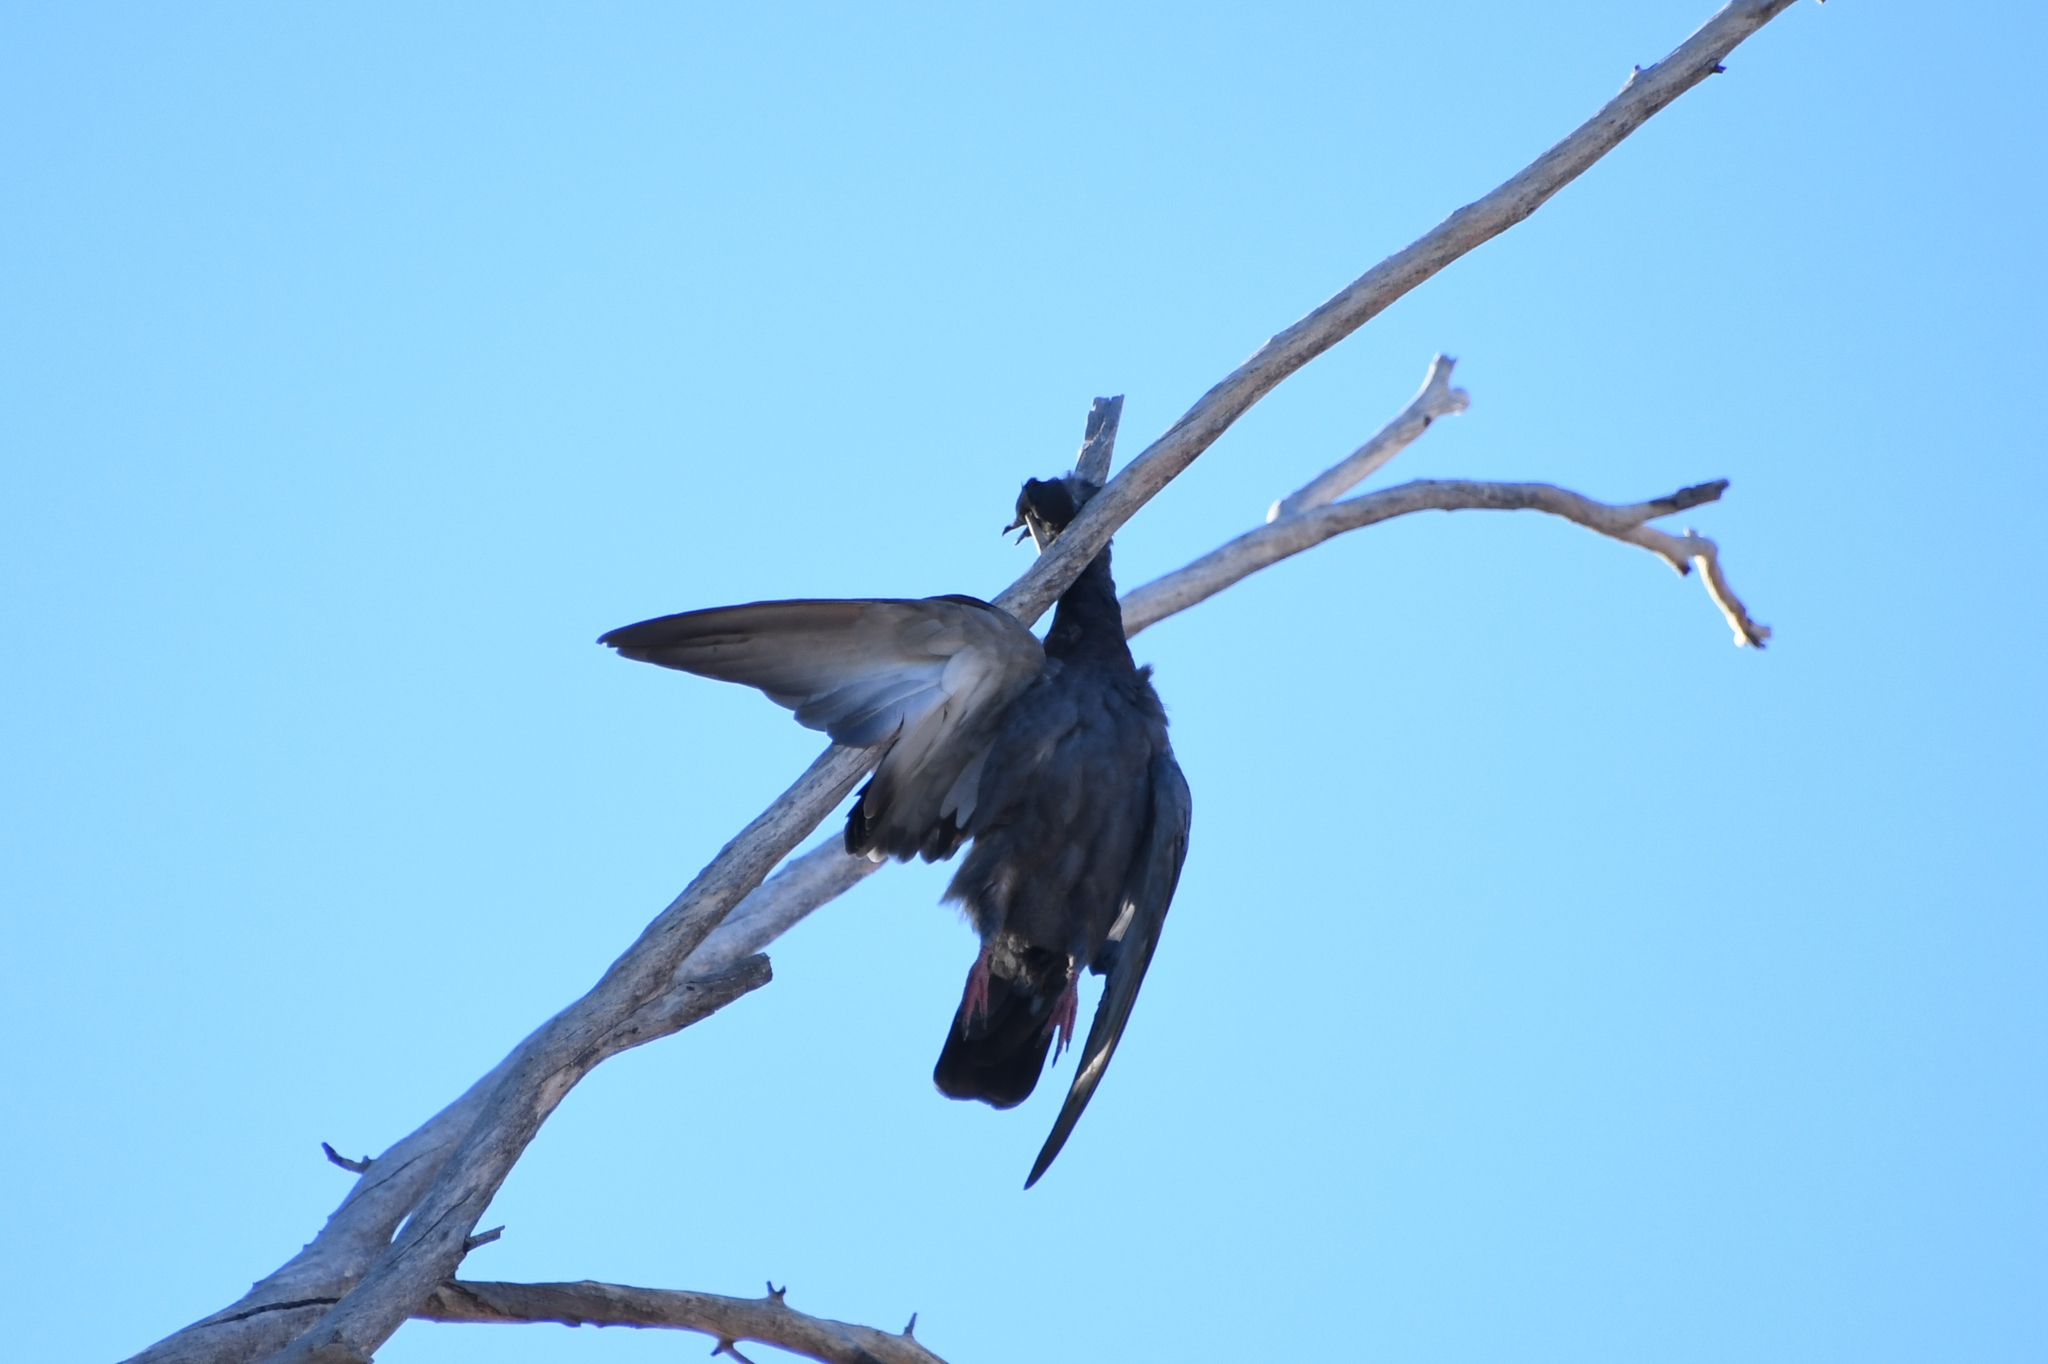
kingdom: Animalia
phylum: Chordata
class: Aves
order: Columbiformes
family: Columbidae
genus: Columba
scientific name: Columba livia
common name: Rock pigeon
